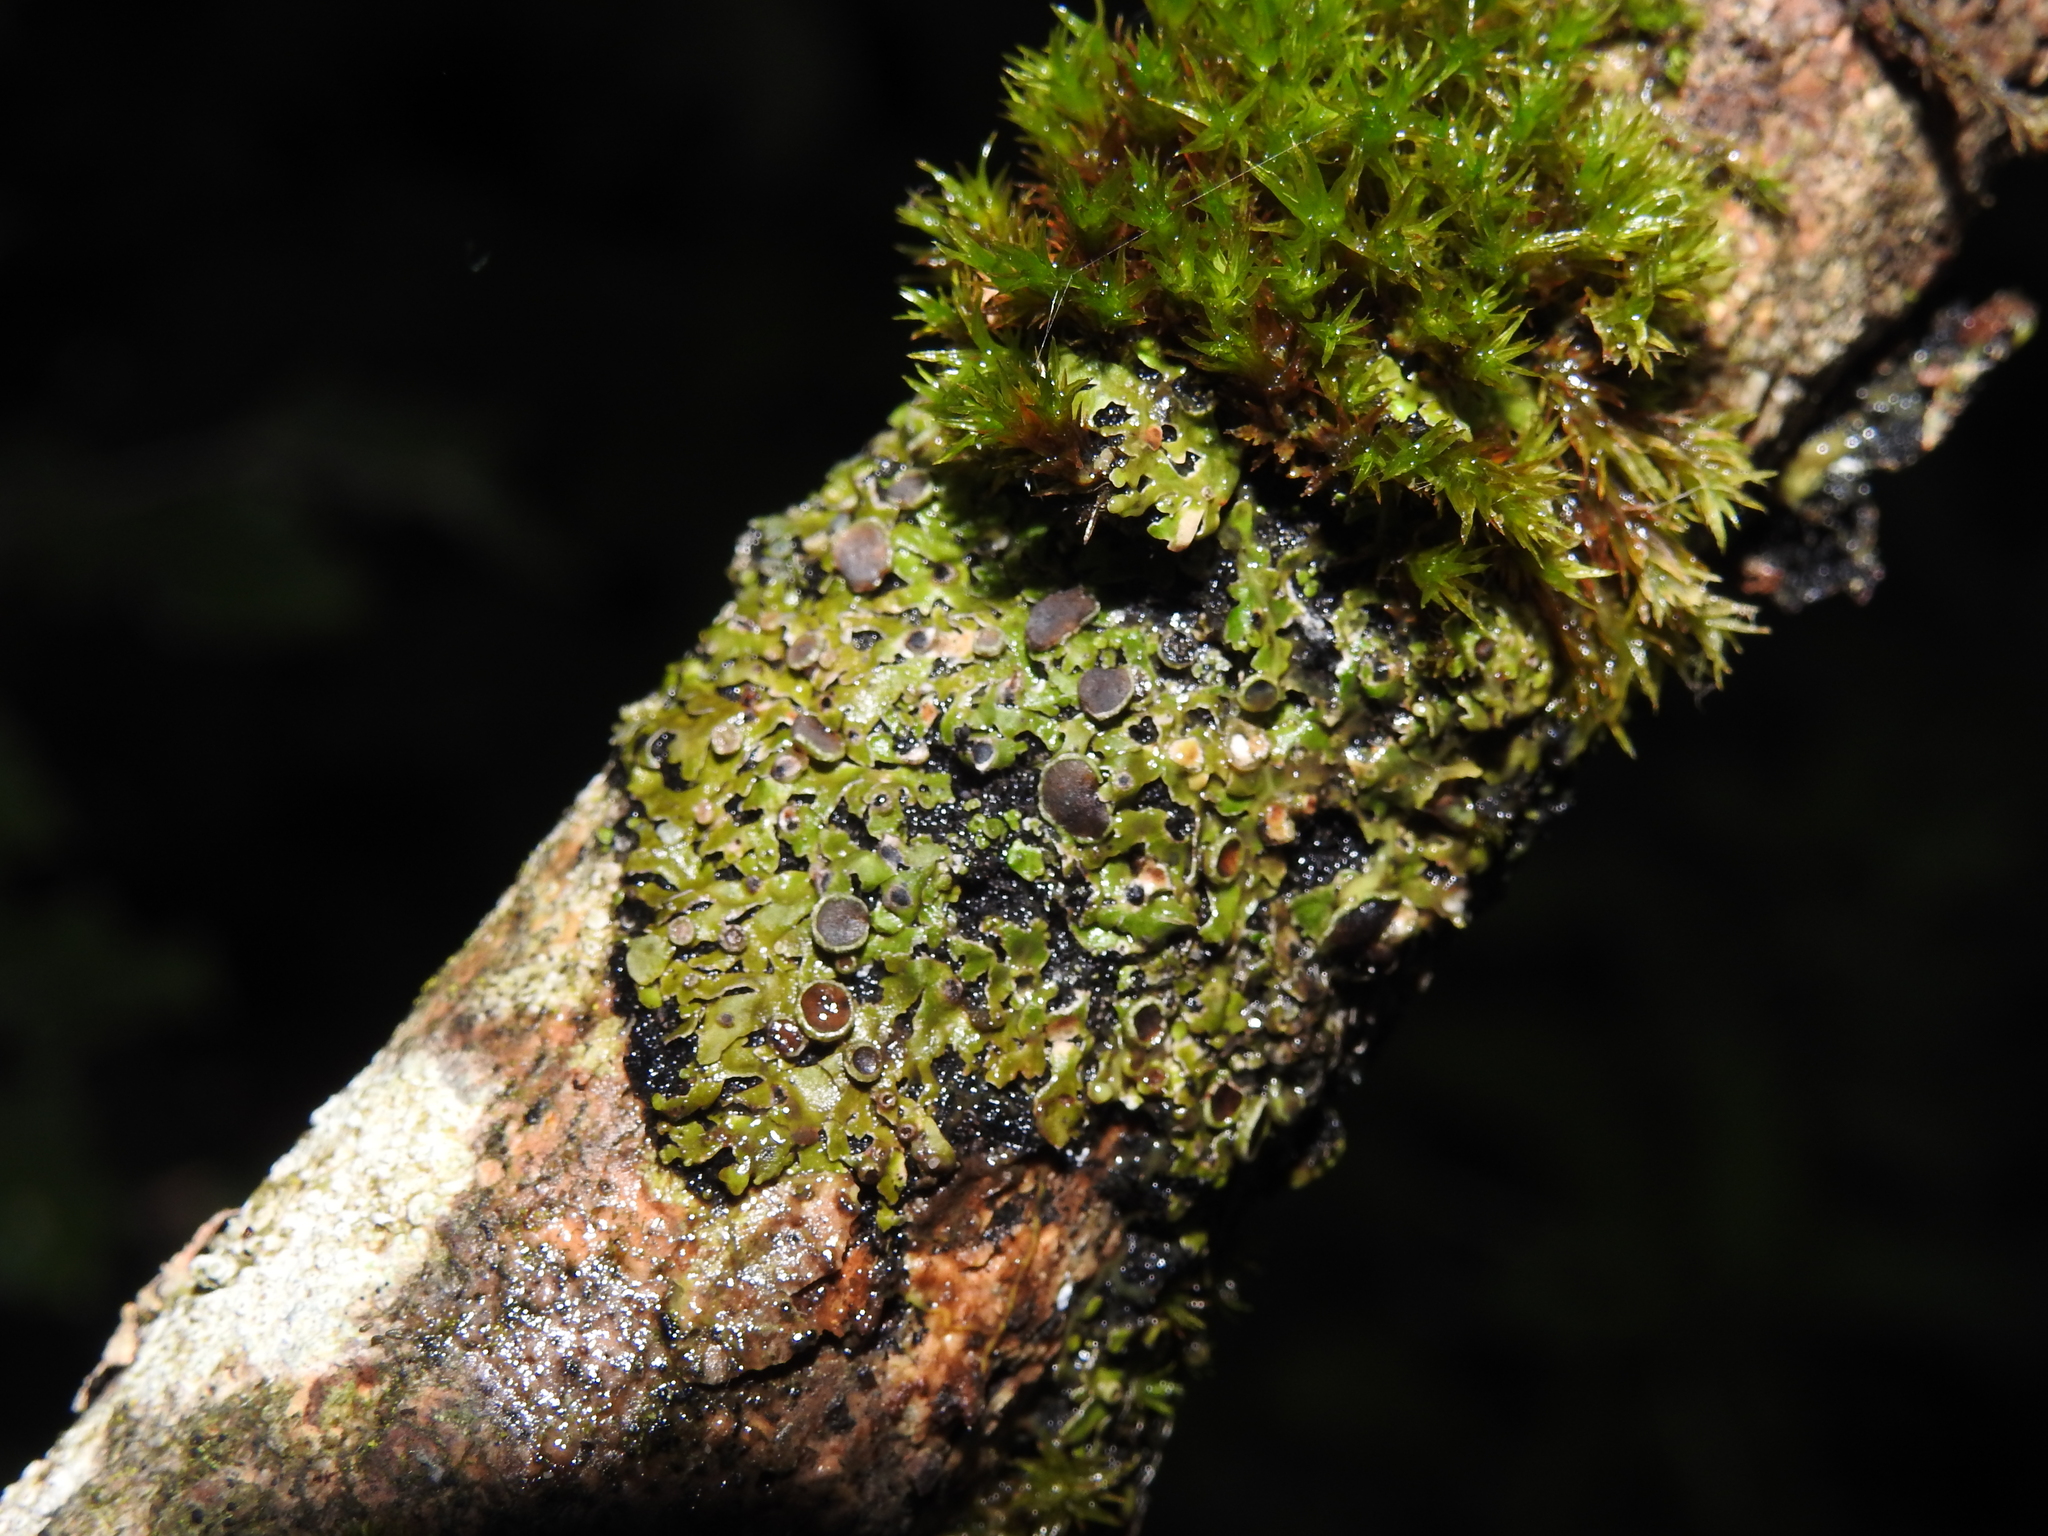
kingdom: Fungi
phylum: Ascomycota
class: Lecanoromycetes
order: Caliciales
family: Physciaceae
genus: Physconia
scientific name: Physconia distorta
